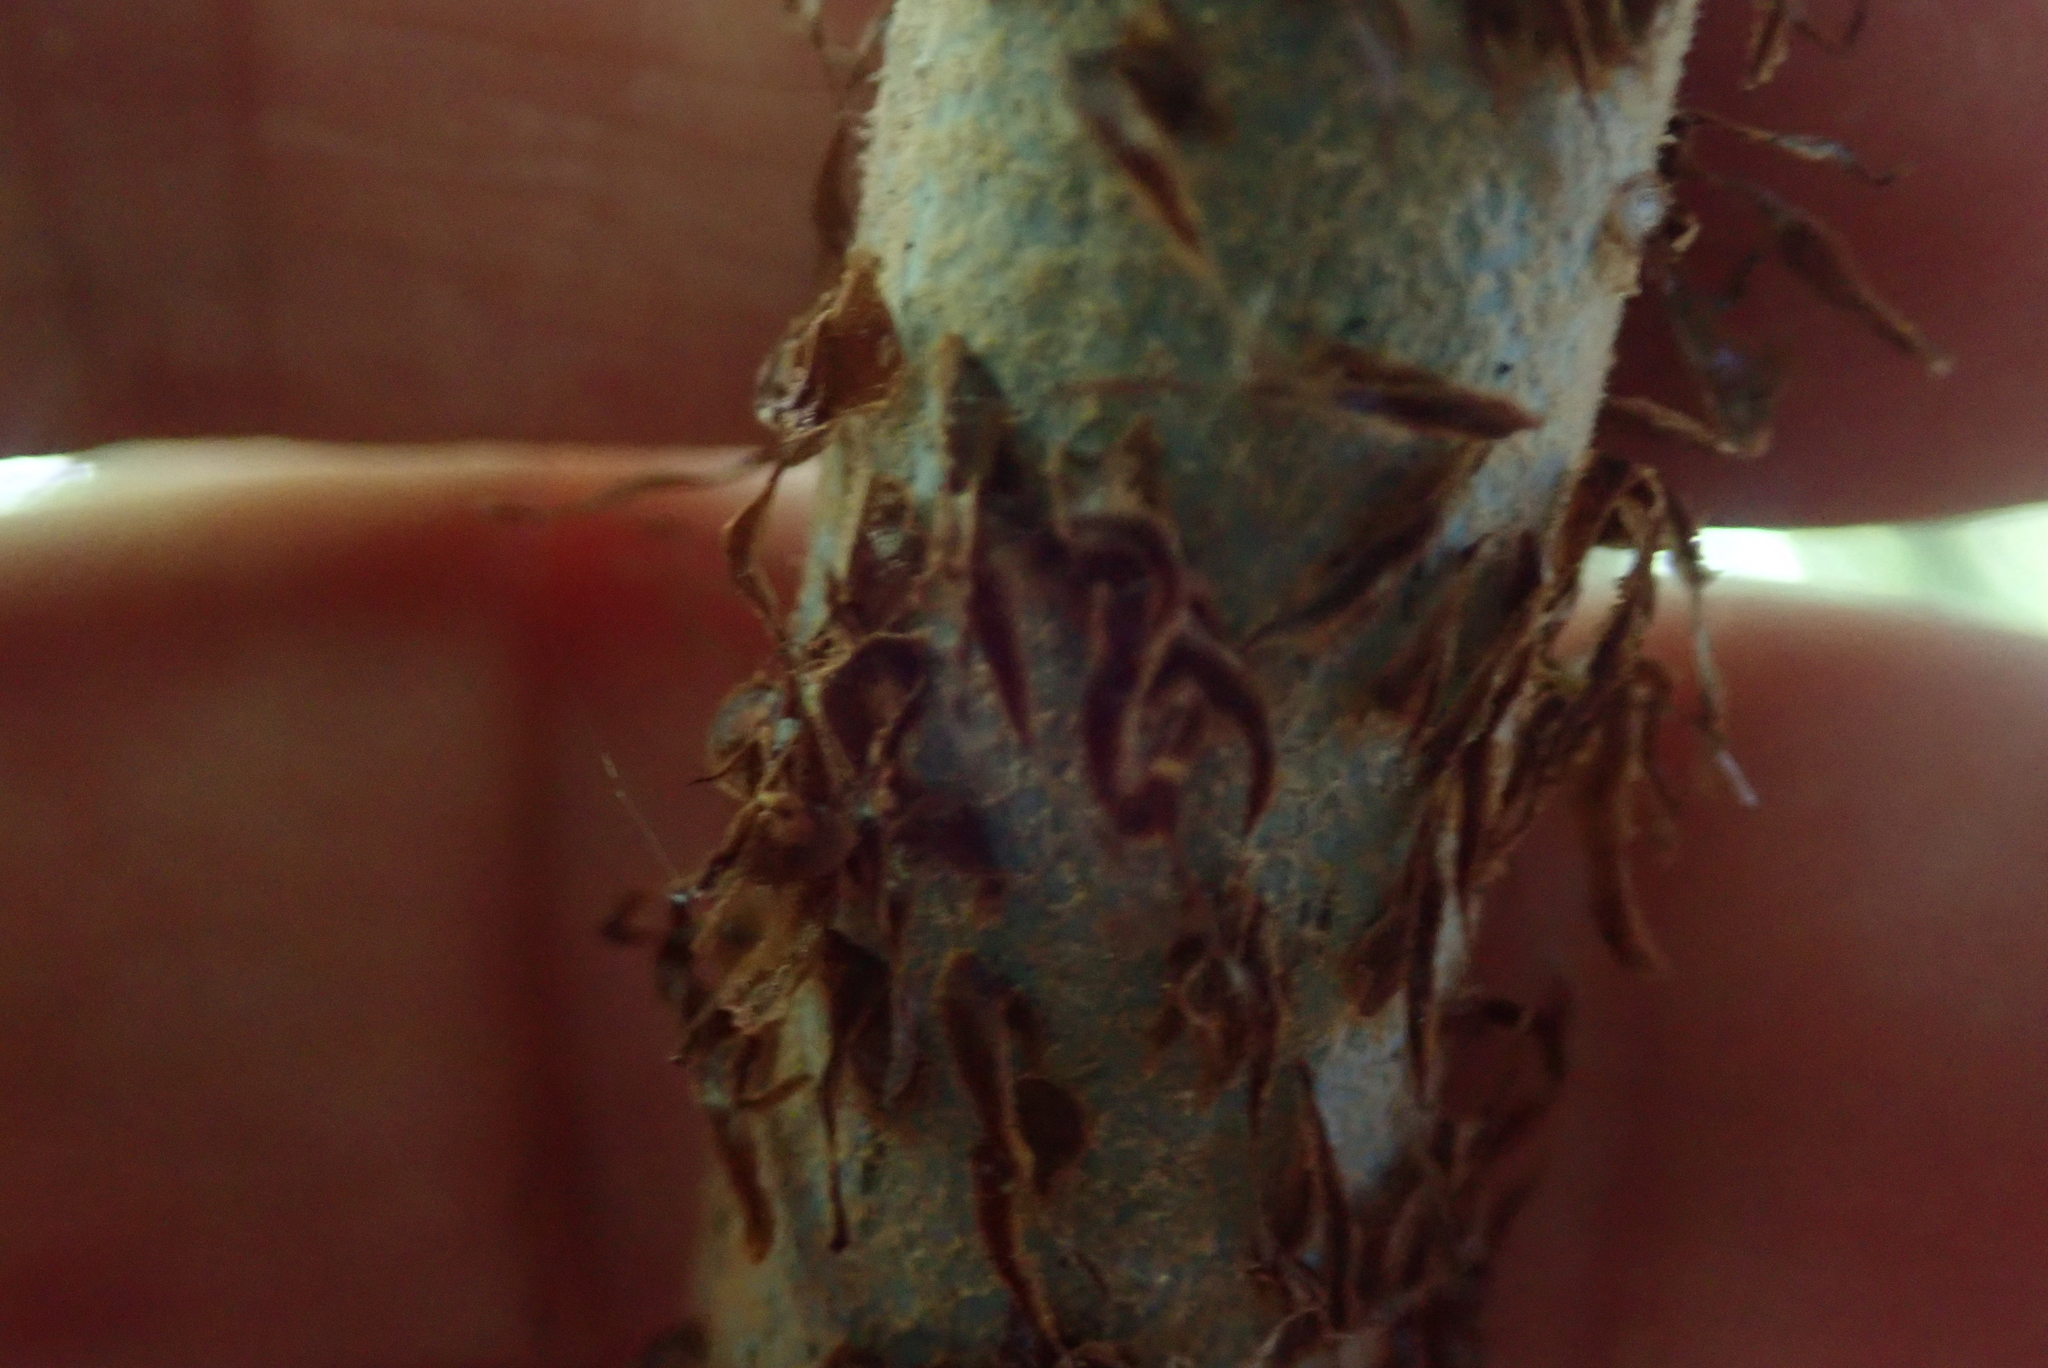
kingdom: Plantae
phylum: Tracheophyta
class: Polypodiopsida
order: Cyatheales
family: Cyatheaceae
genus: Alsophila
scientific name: Alsophila dealbata
